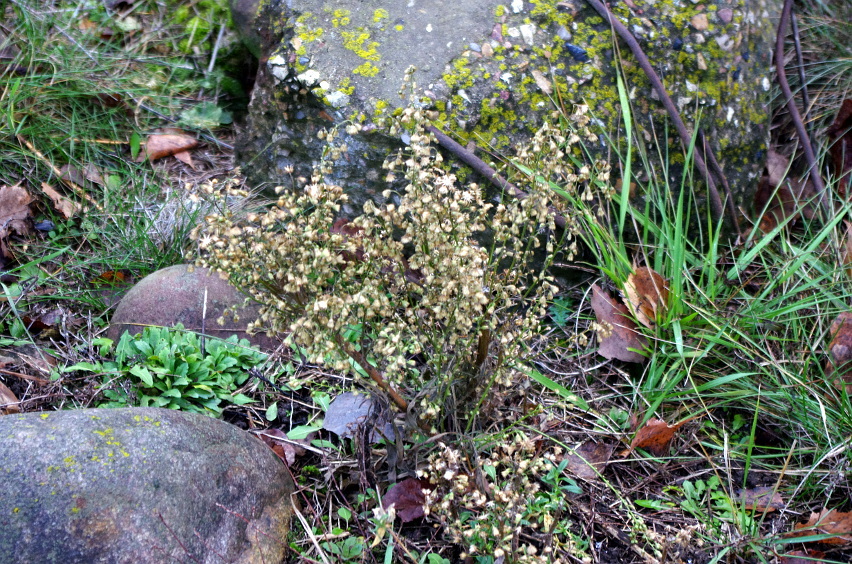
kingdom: Plantae
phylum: Tracheophyta
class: Magnoliopsida
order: Asterales
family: Asteraceae
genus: Erigeron
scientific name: Erigeron canadensis
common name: Canadian fleabane
